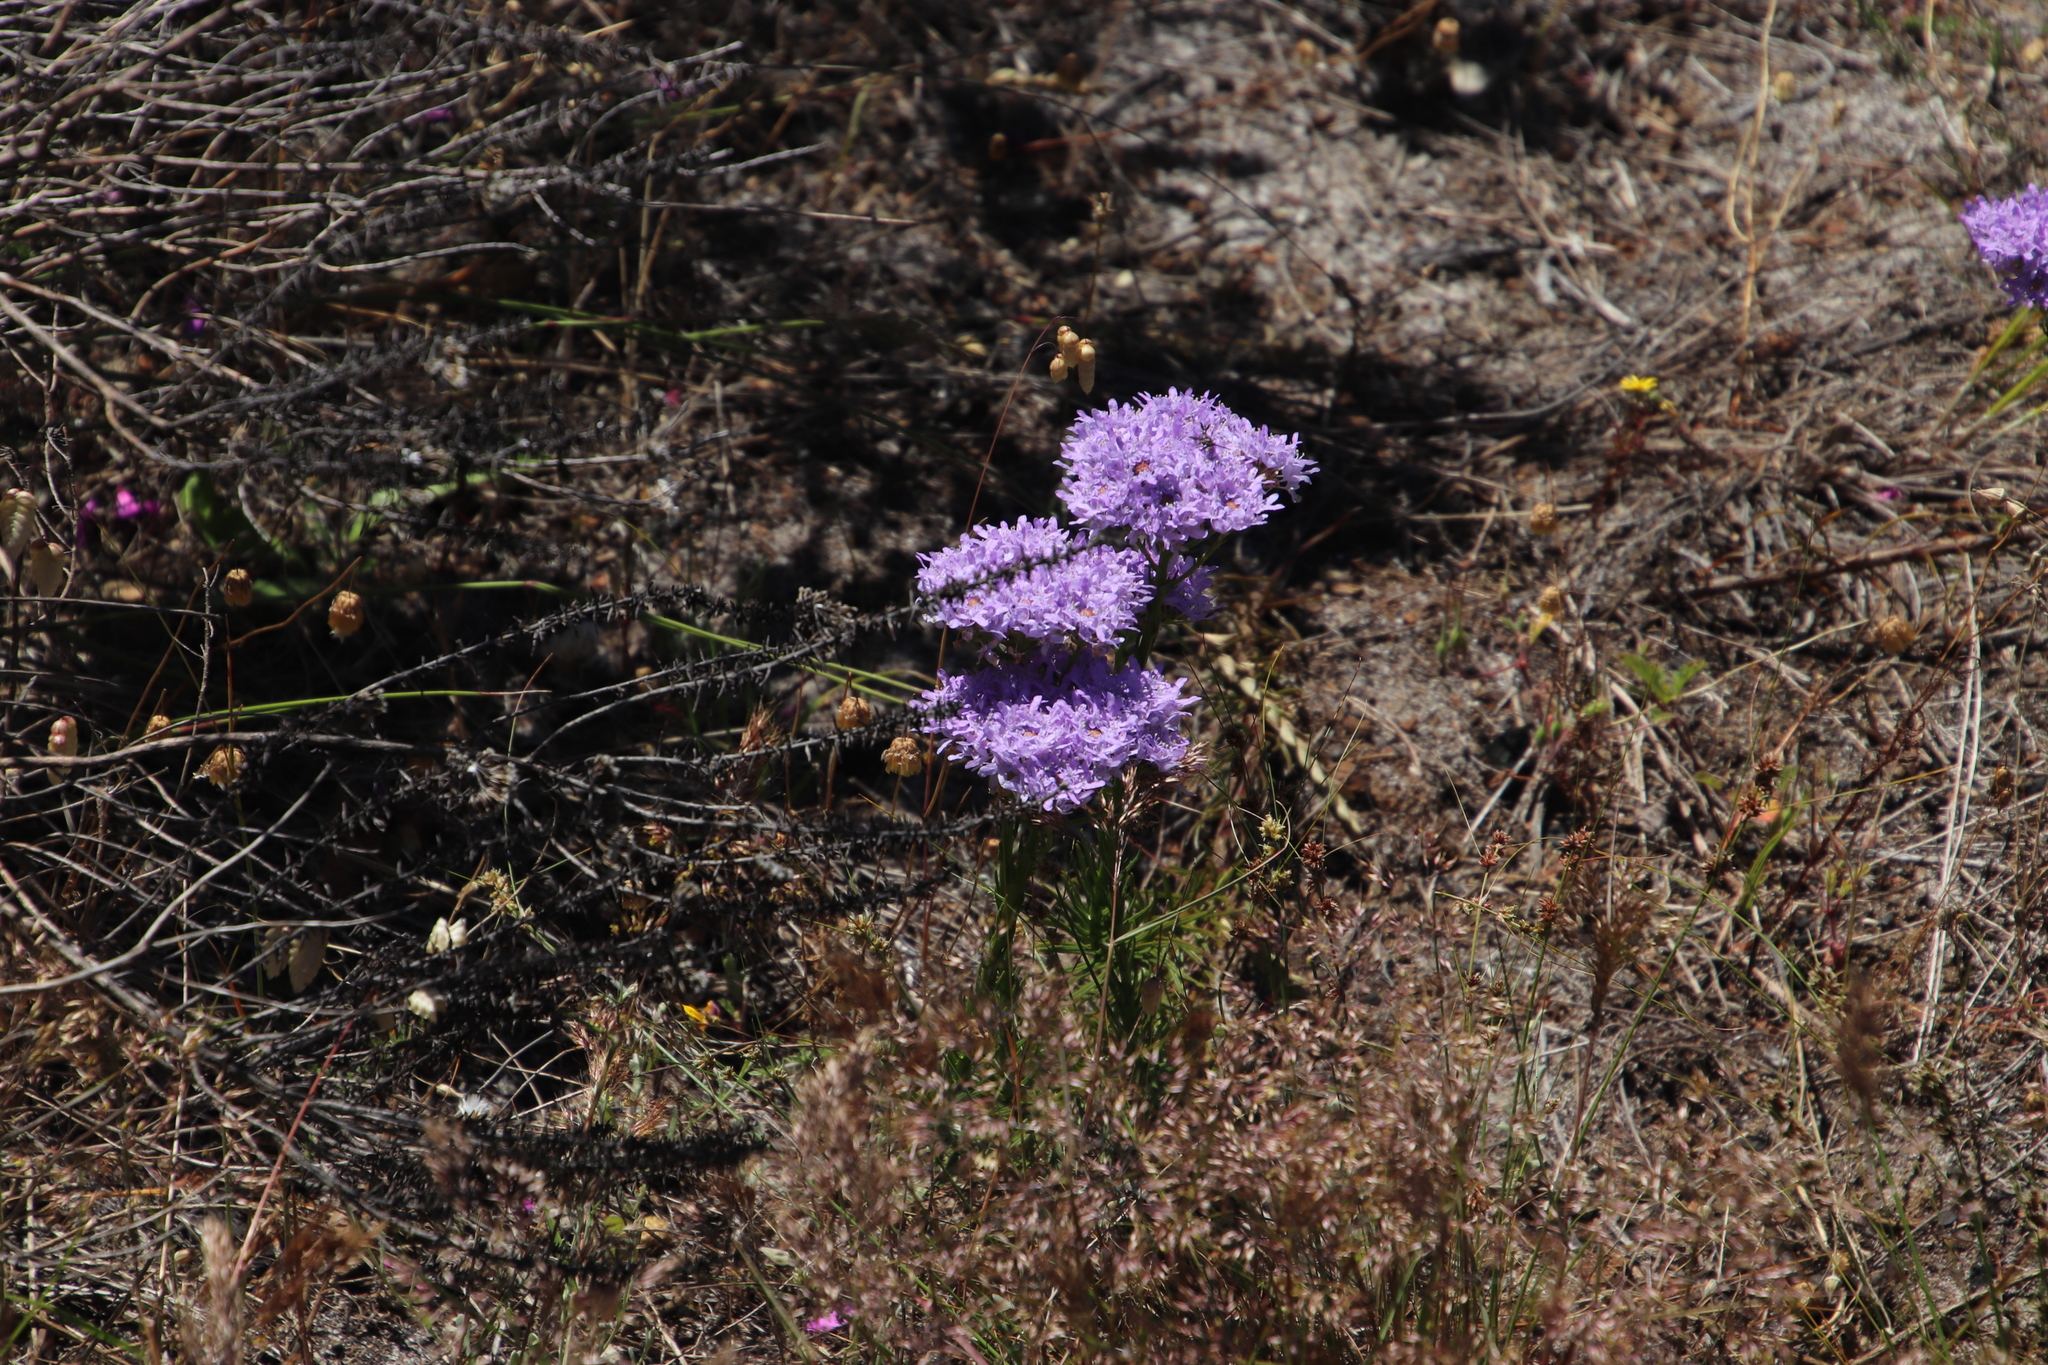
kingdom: Plantae
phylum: Tracheophyta
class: Magnoliopsida
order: Lamiales
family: Scrophulariaceae
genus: Pseudoselago
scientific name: Pseudoselago spuria
